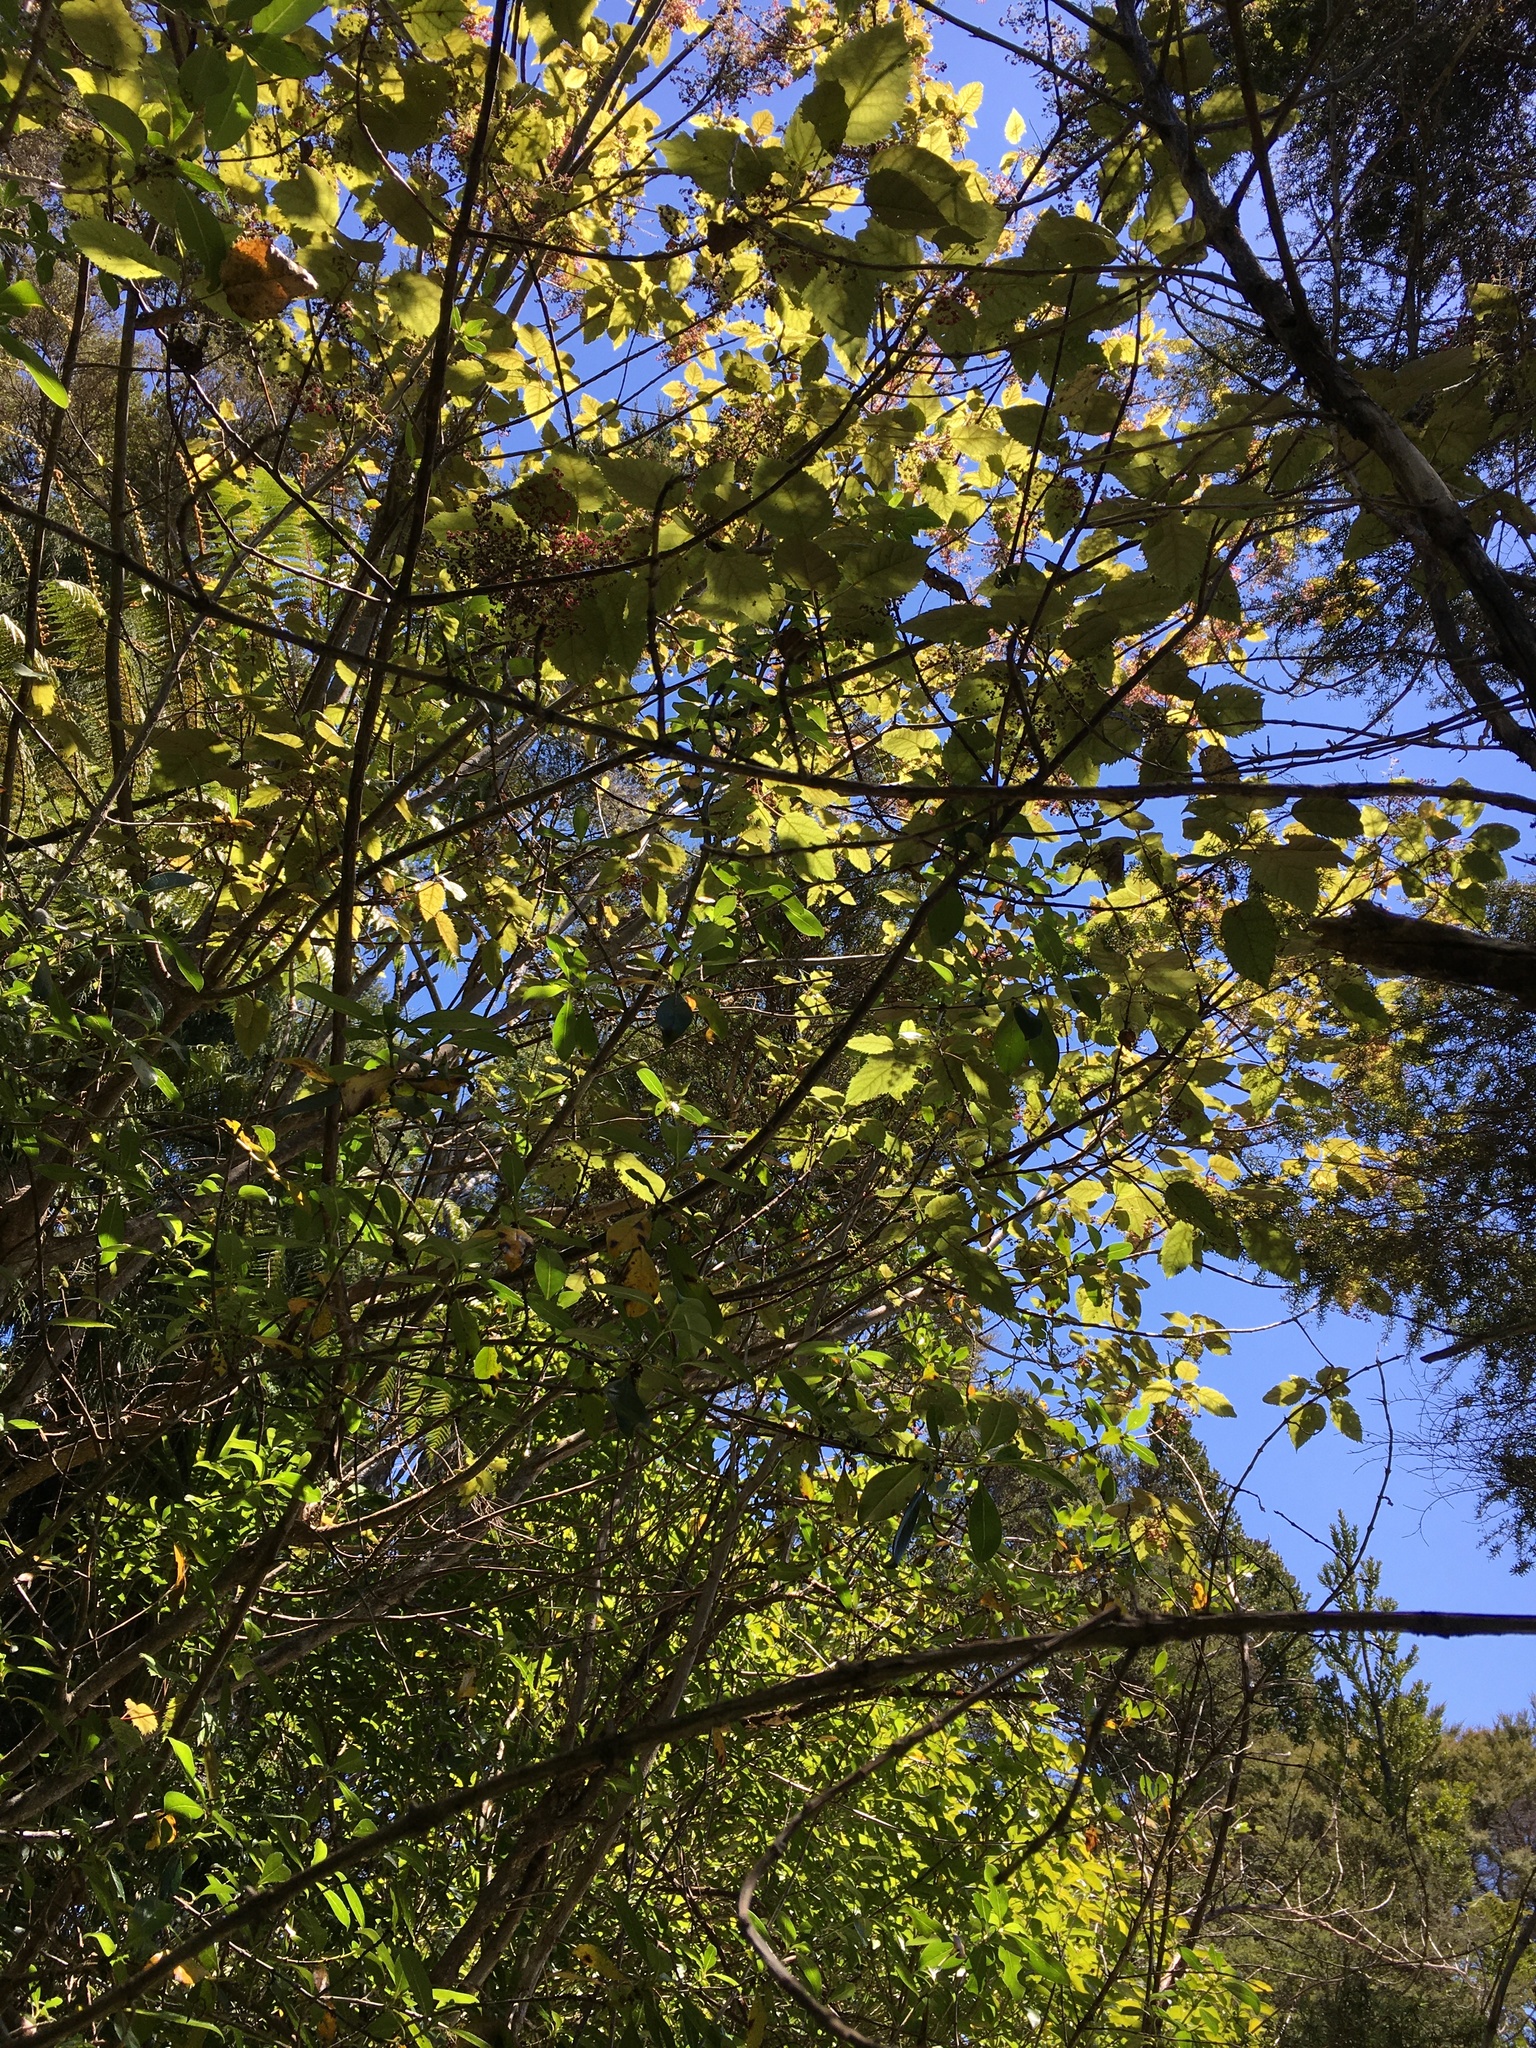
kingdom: Plantae
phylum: Tracheophyta
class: Magnoliopsida
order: Oxalidales
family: Elaeocarpaceae
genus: Aristotelia
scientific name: Aristotelia serrata
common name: New zealand wineberry
